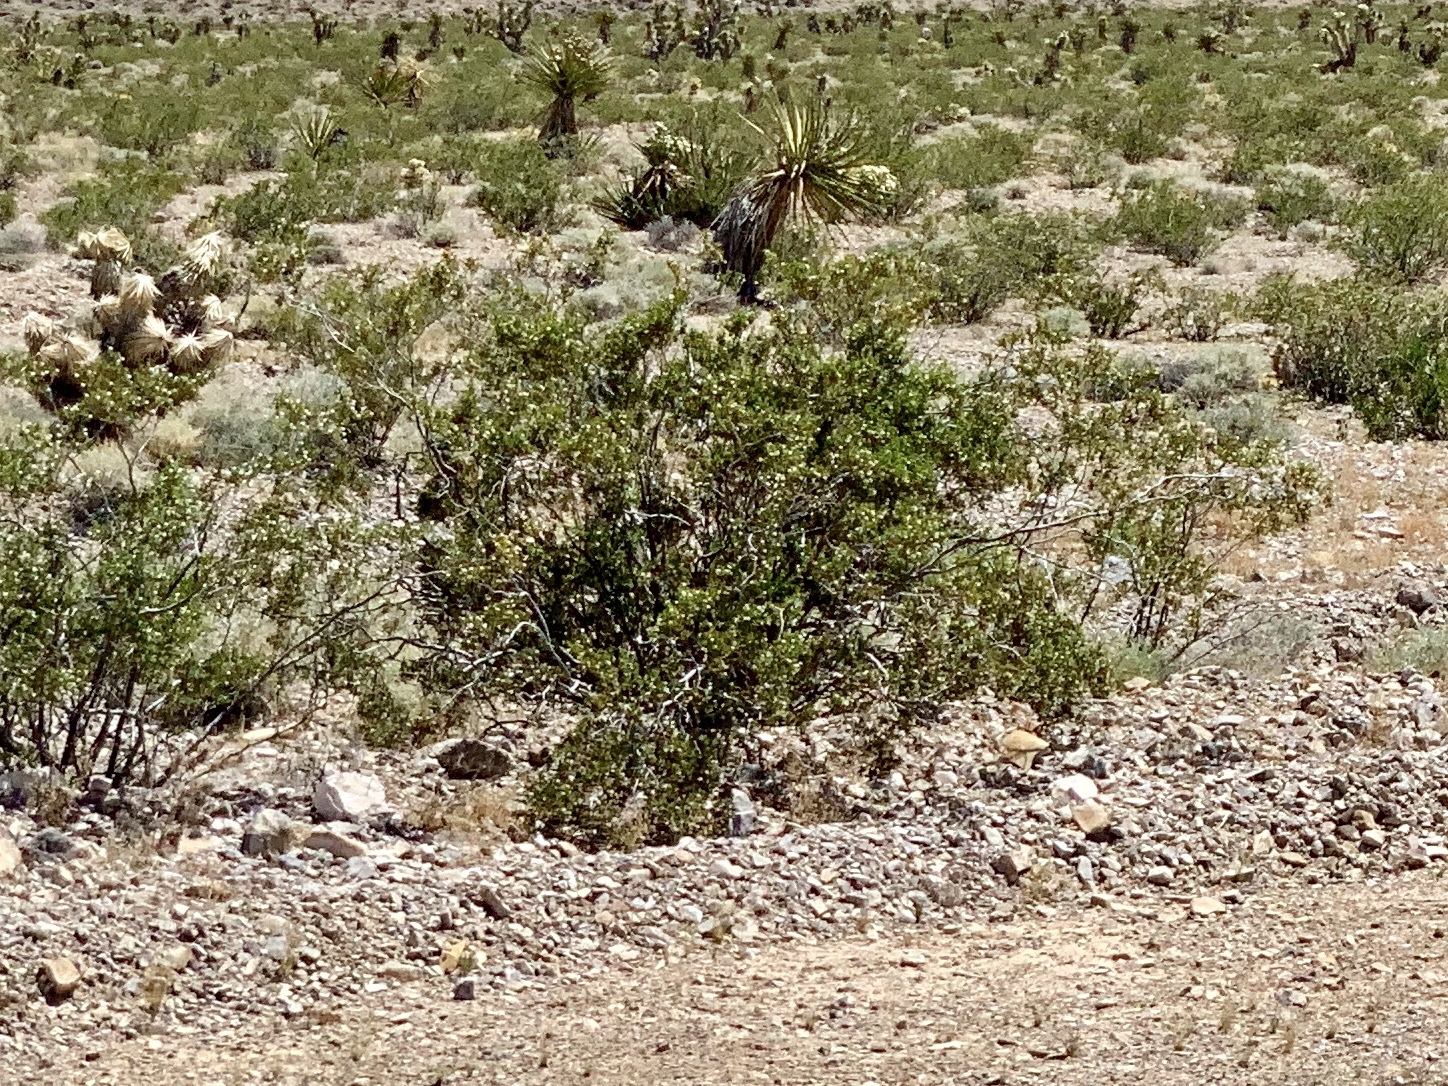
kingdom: Plantae
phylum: Tracheophyta
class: Magnoliopsida
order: Zygophyllales
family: Zygophyllaceae
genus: Larrea
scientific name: Larrea tridentata
